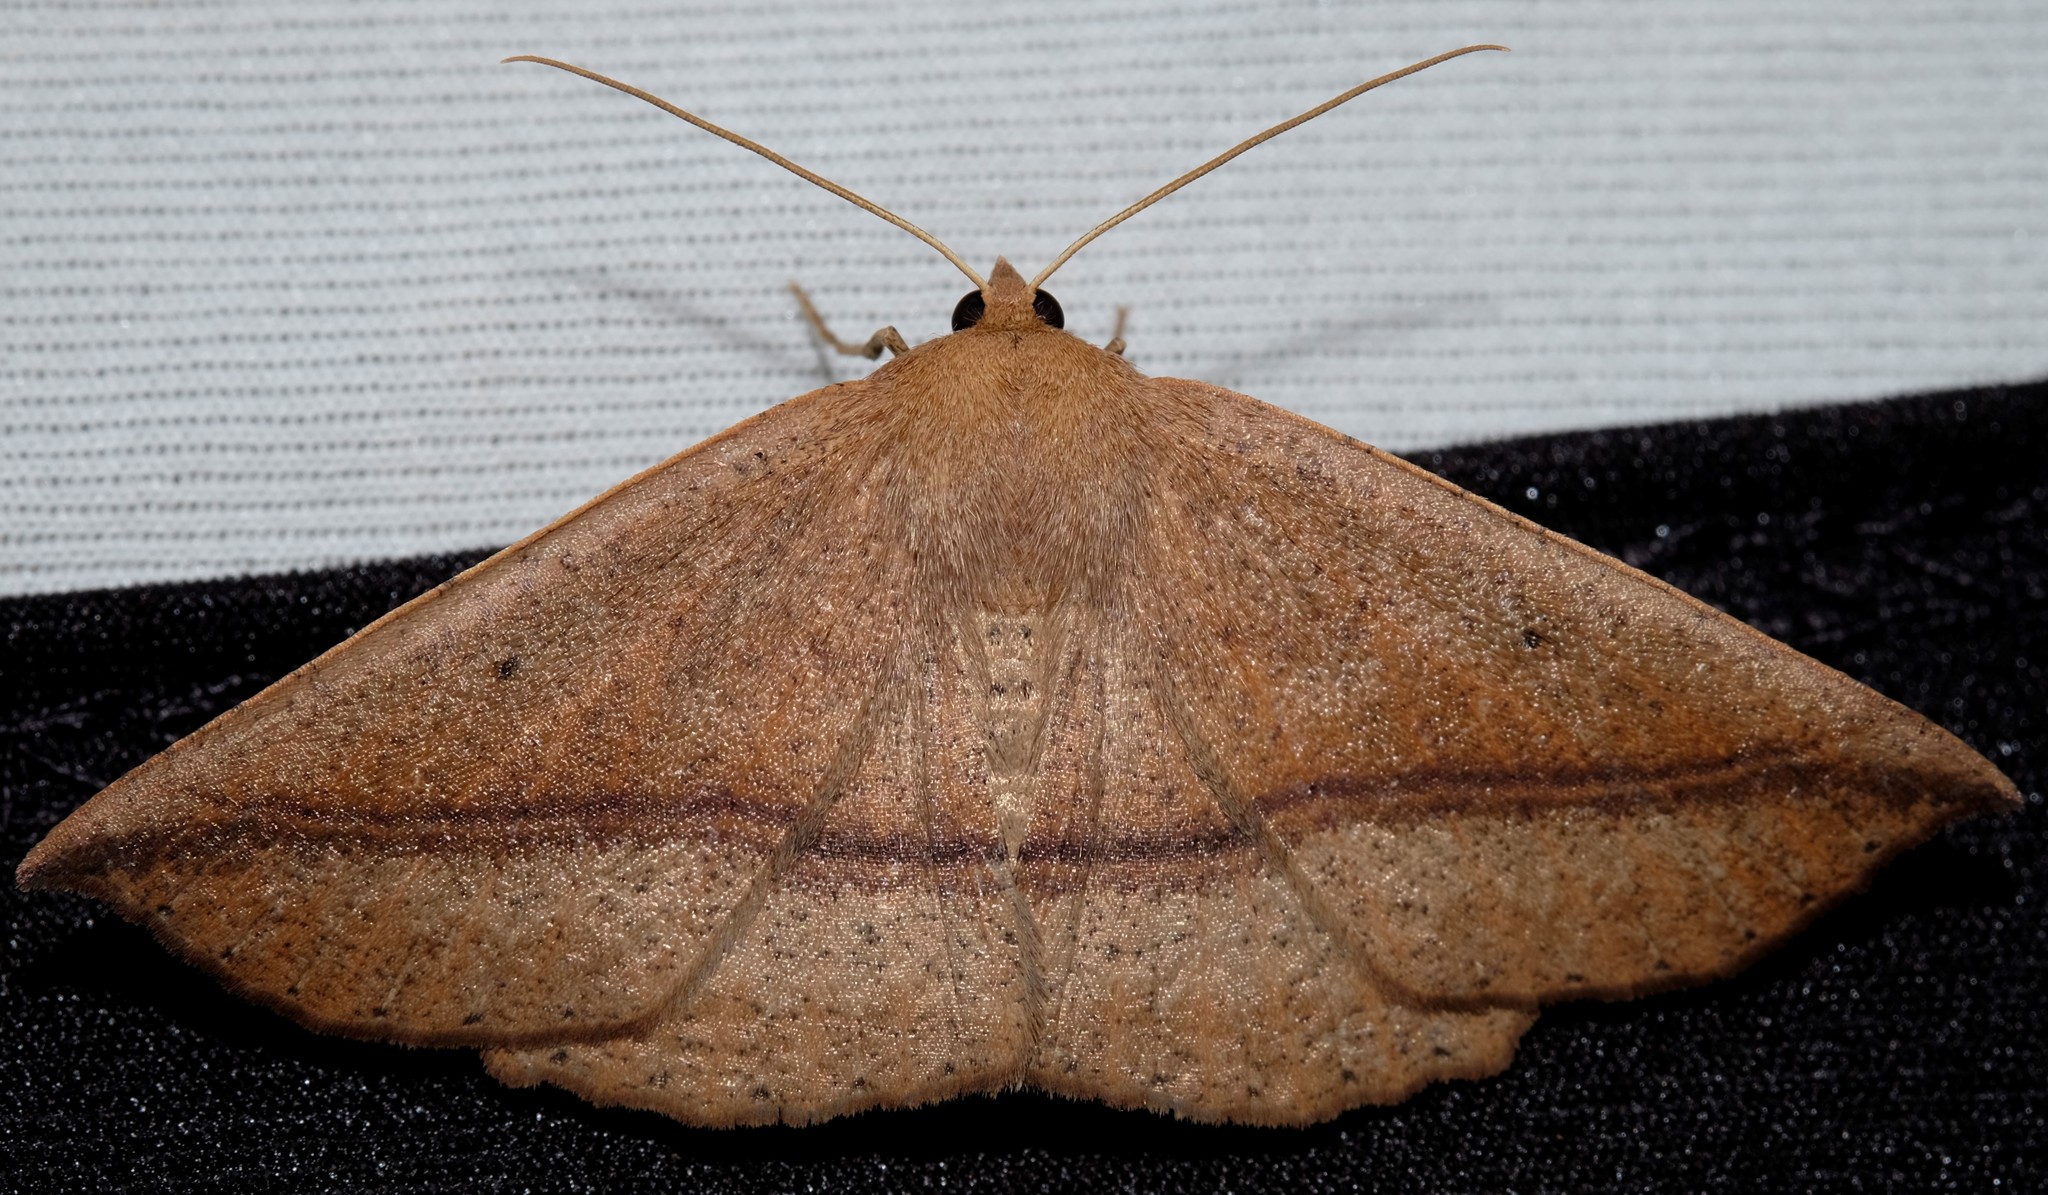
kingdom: Animalia
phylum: Arthropoda
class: Insecta
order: Lepidoptera
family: Geometridae
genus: Idiodes
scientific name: Idiodes apicata
